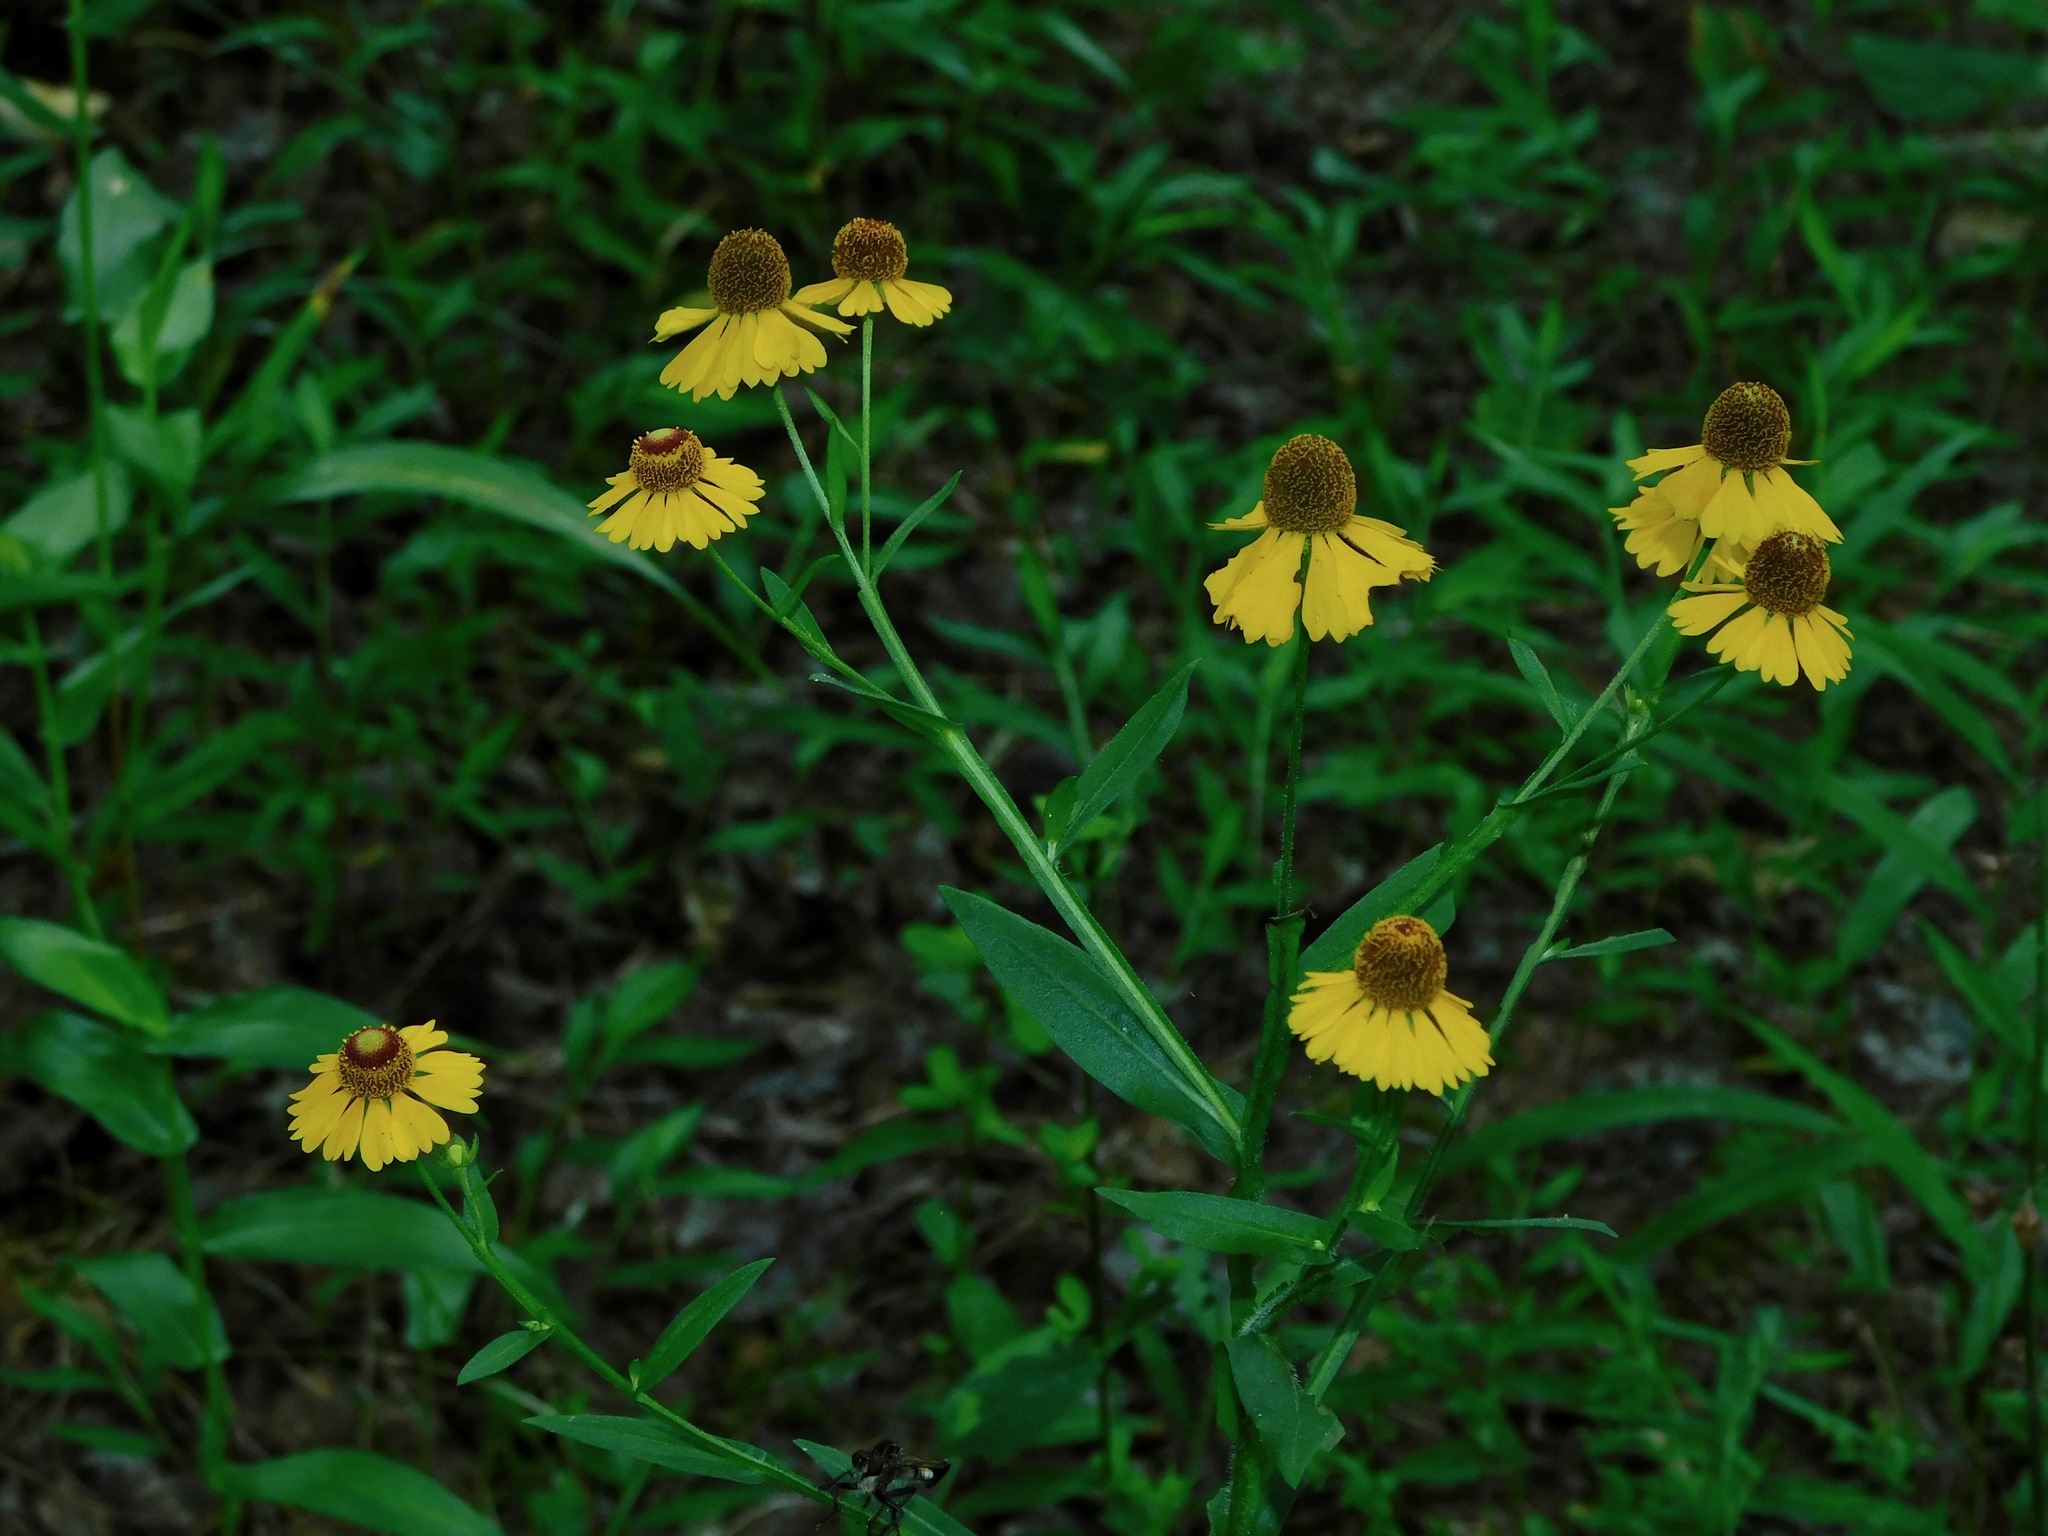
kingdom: Plantae
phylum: Tracheophyta
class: Magnoliopsida
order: Asterales
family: Asteraceae
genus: Helenium
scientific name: Helenium flexuosum
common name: Naked-flowered sneezeweed
